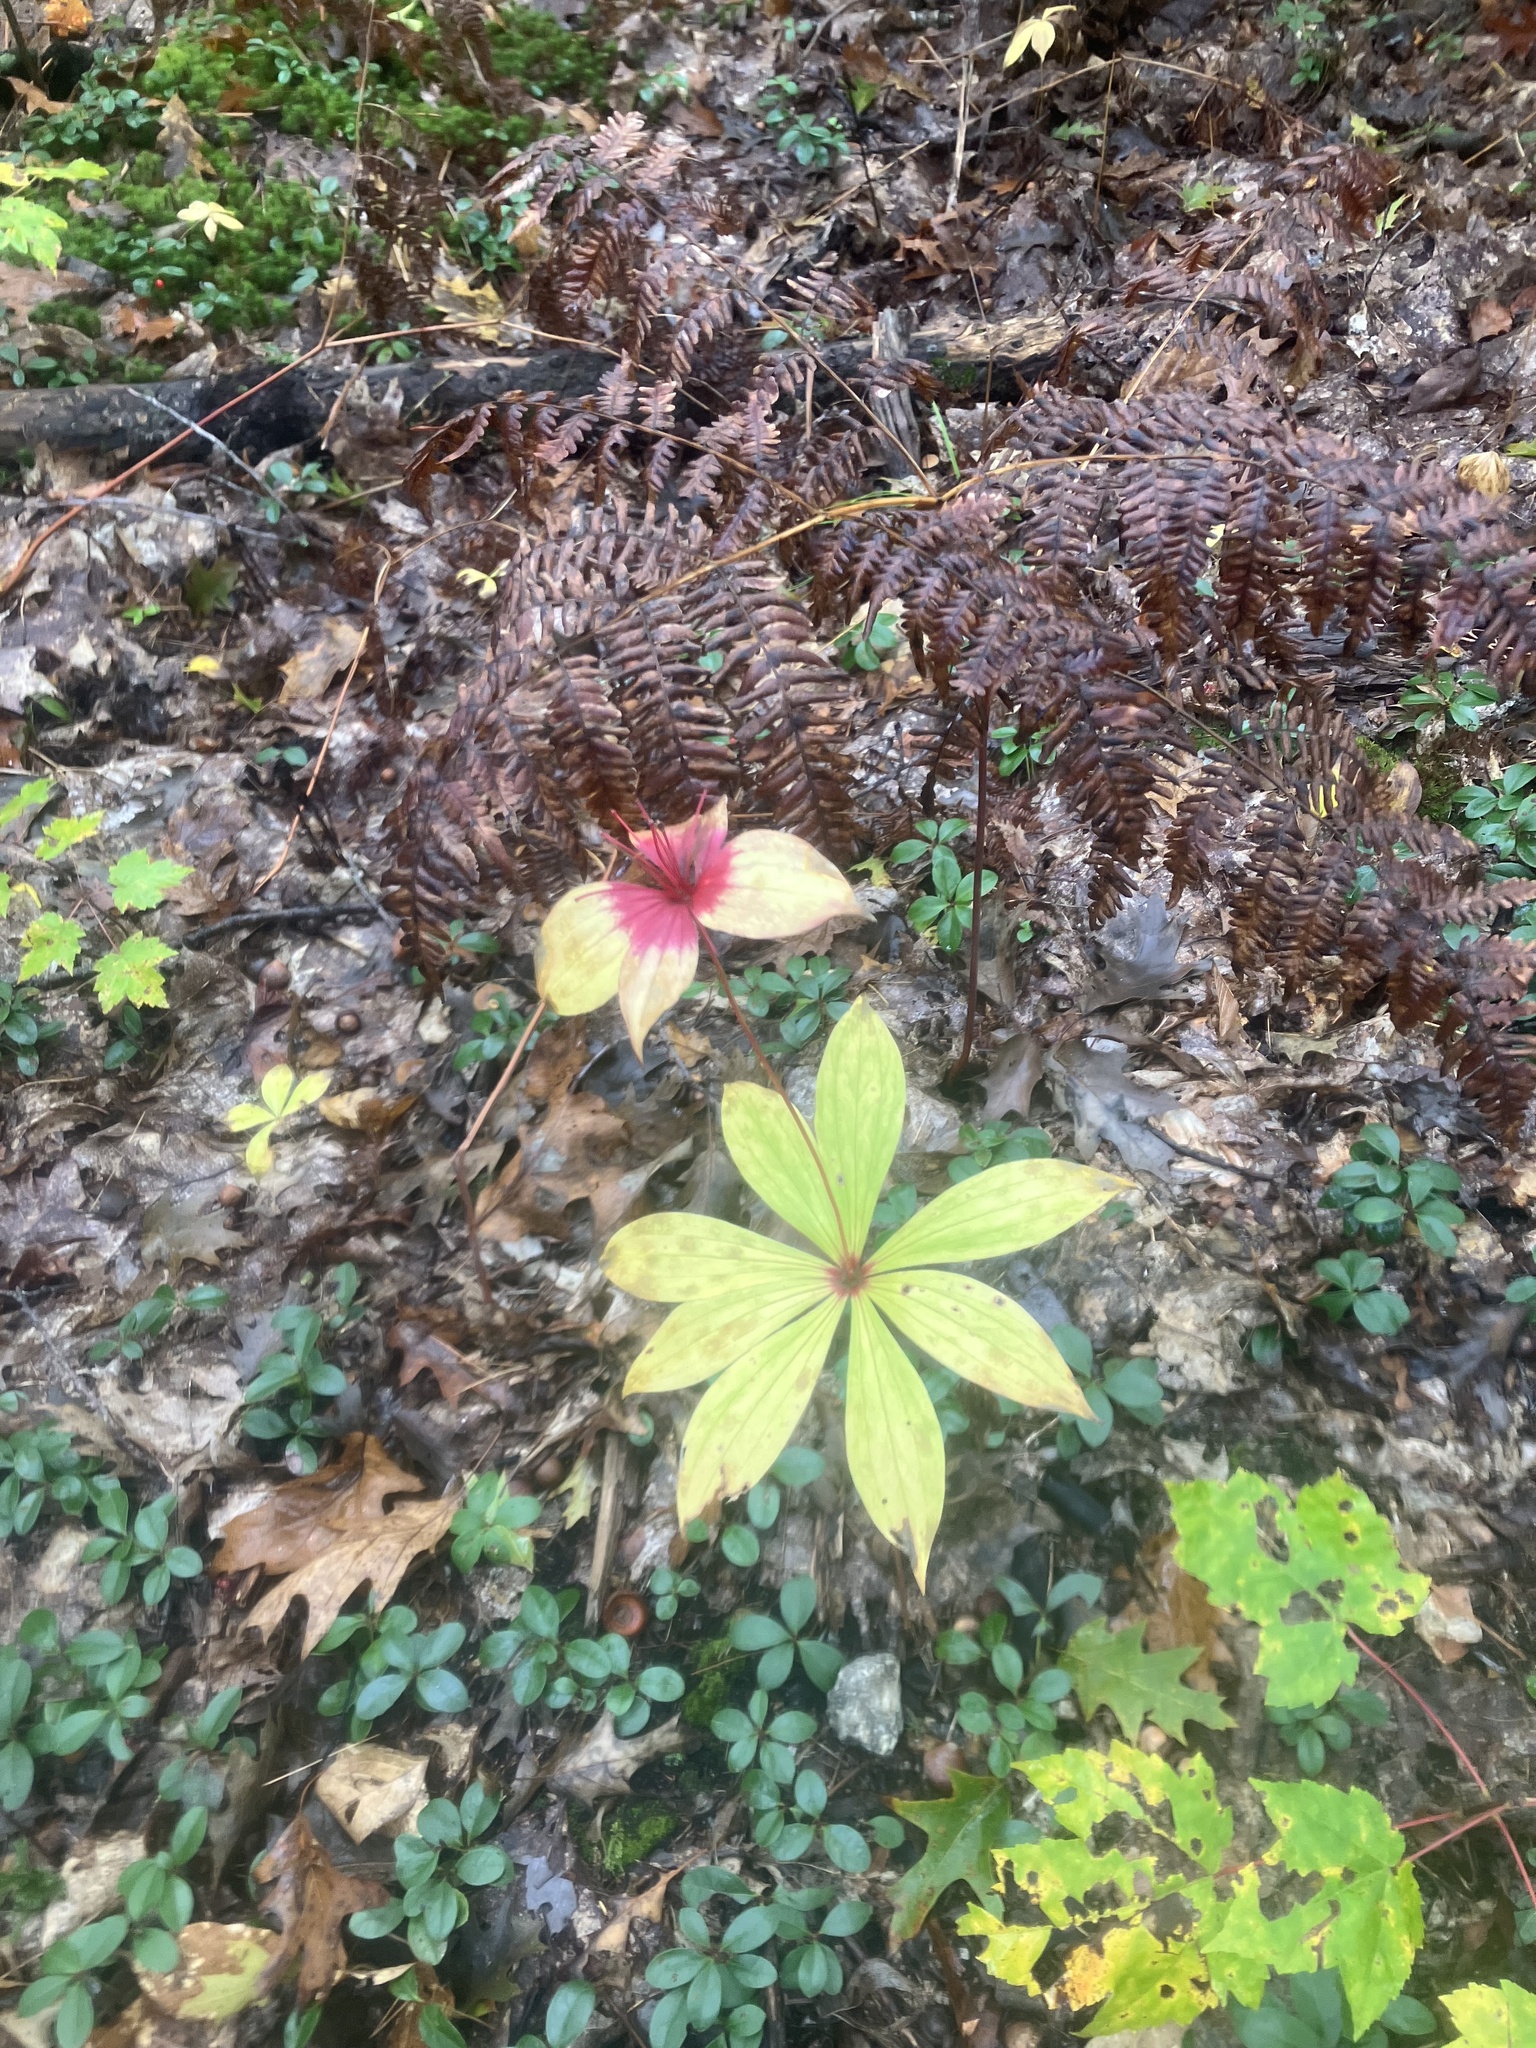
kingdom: Plantae
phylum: Tracheophyta
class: Liliopsida
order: Liliales
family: Liliaceae
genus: Medeola
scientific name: Medeola virginiana
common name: Indian cucumber-root
